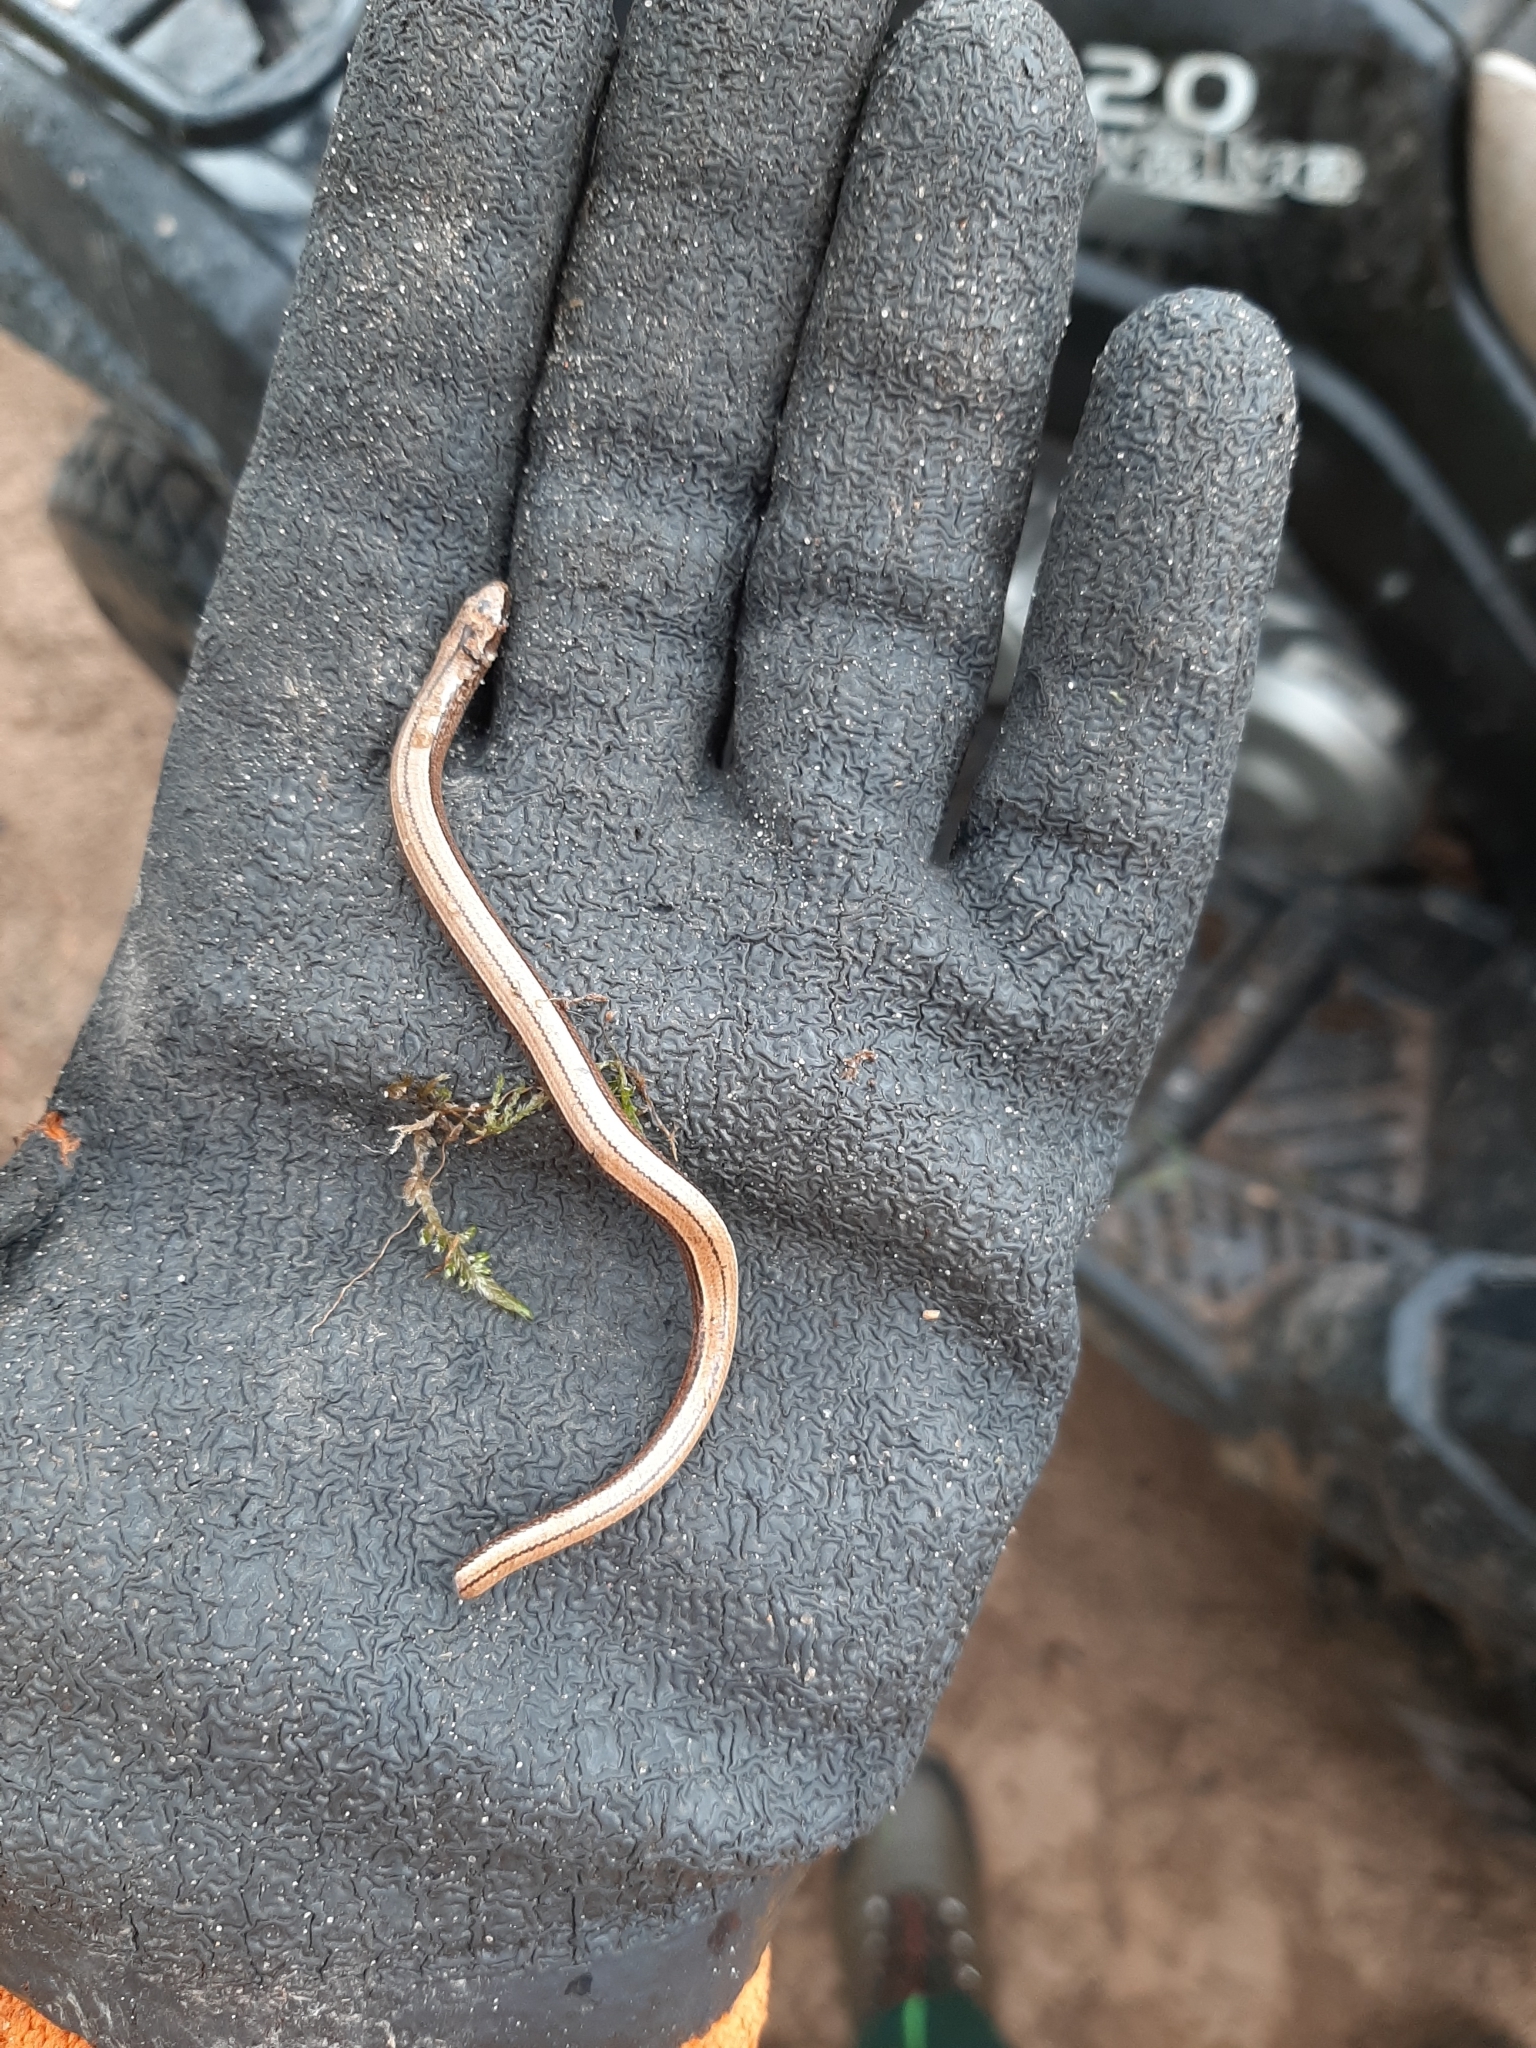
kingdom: Animalia
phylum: Chordata
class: Squamata
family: Anguidae
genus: Anguis
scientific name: Anguis fragilis
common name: Slow worm
